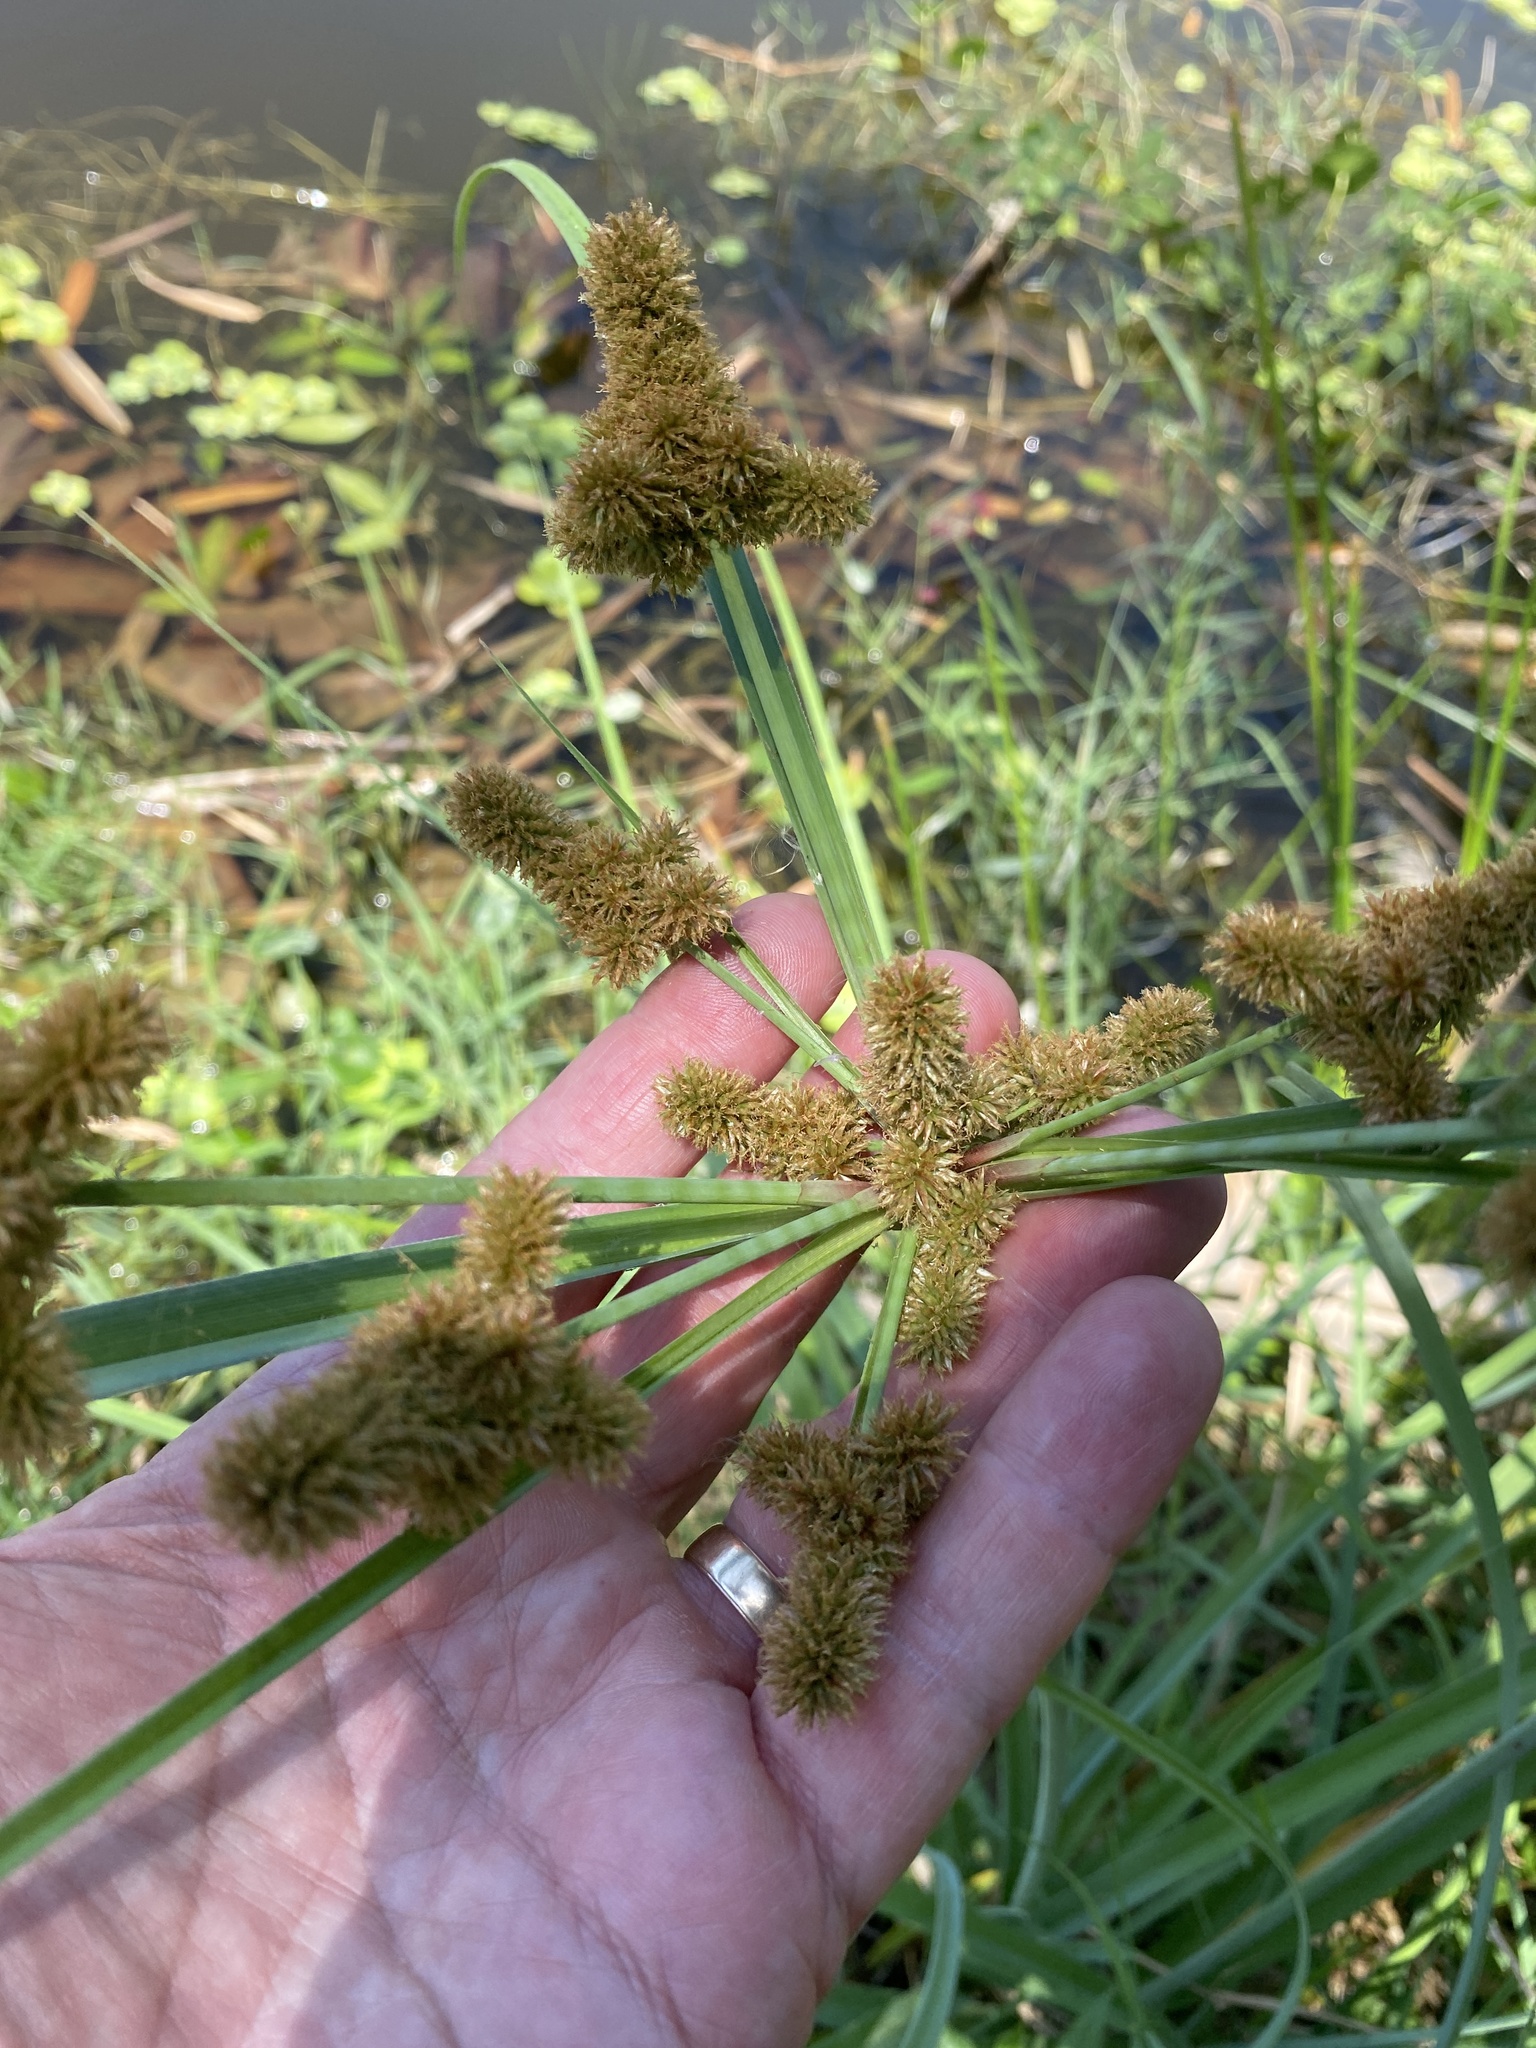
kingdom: Plantae
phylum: Tracheophyta
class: Liliopsida
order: Poales
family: Cyperaceae
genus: Cyperus
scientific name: Cyperus ligularis
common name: Swamp flat sedge
